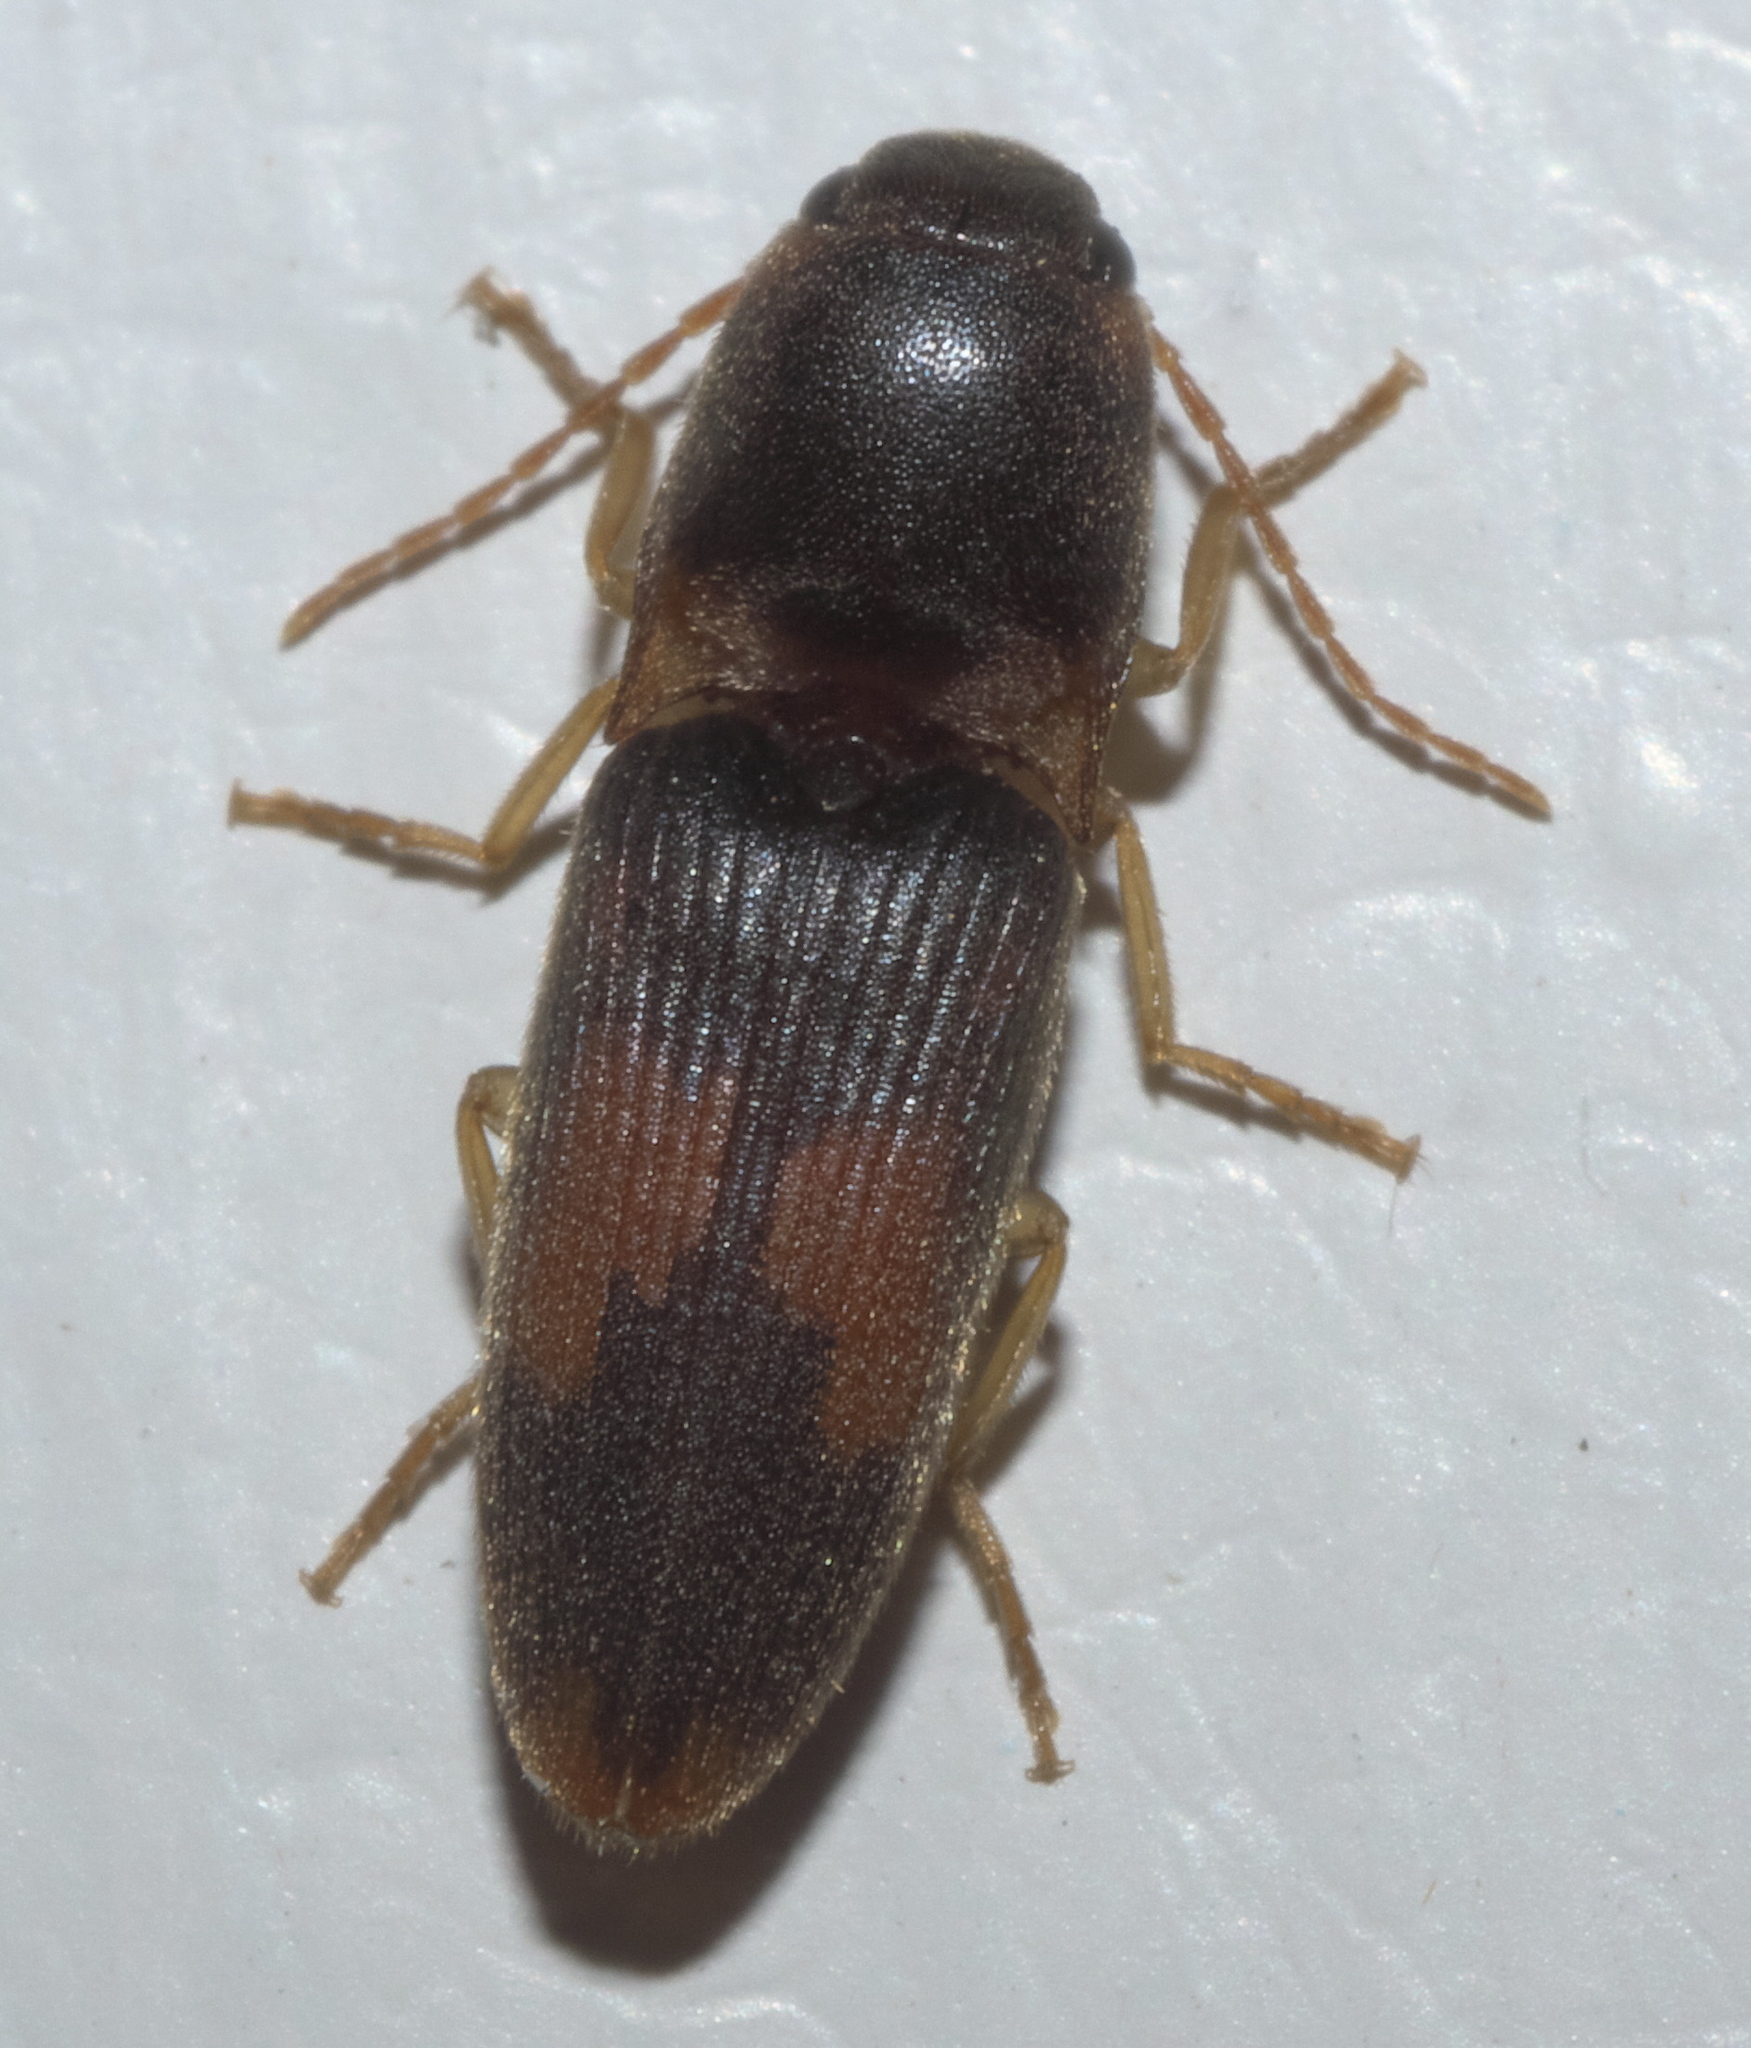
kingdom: Animalia
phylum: Arthropoda
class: Insecta
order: Coleoptera
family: Elateridae
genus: Monocrepidius
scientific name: Monocrepidius posticus
